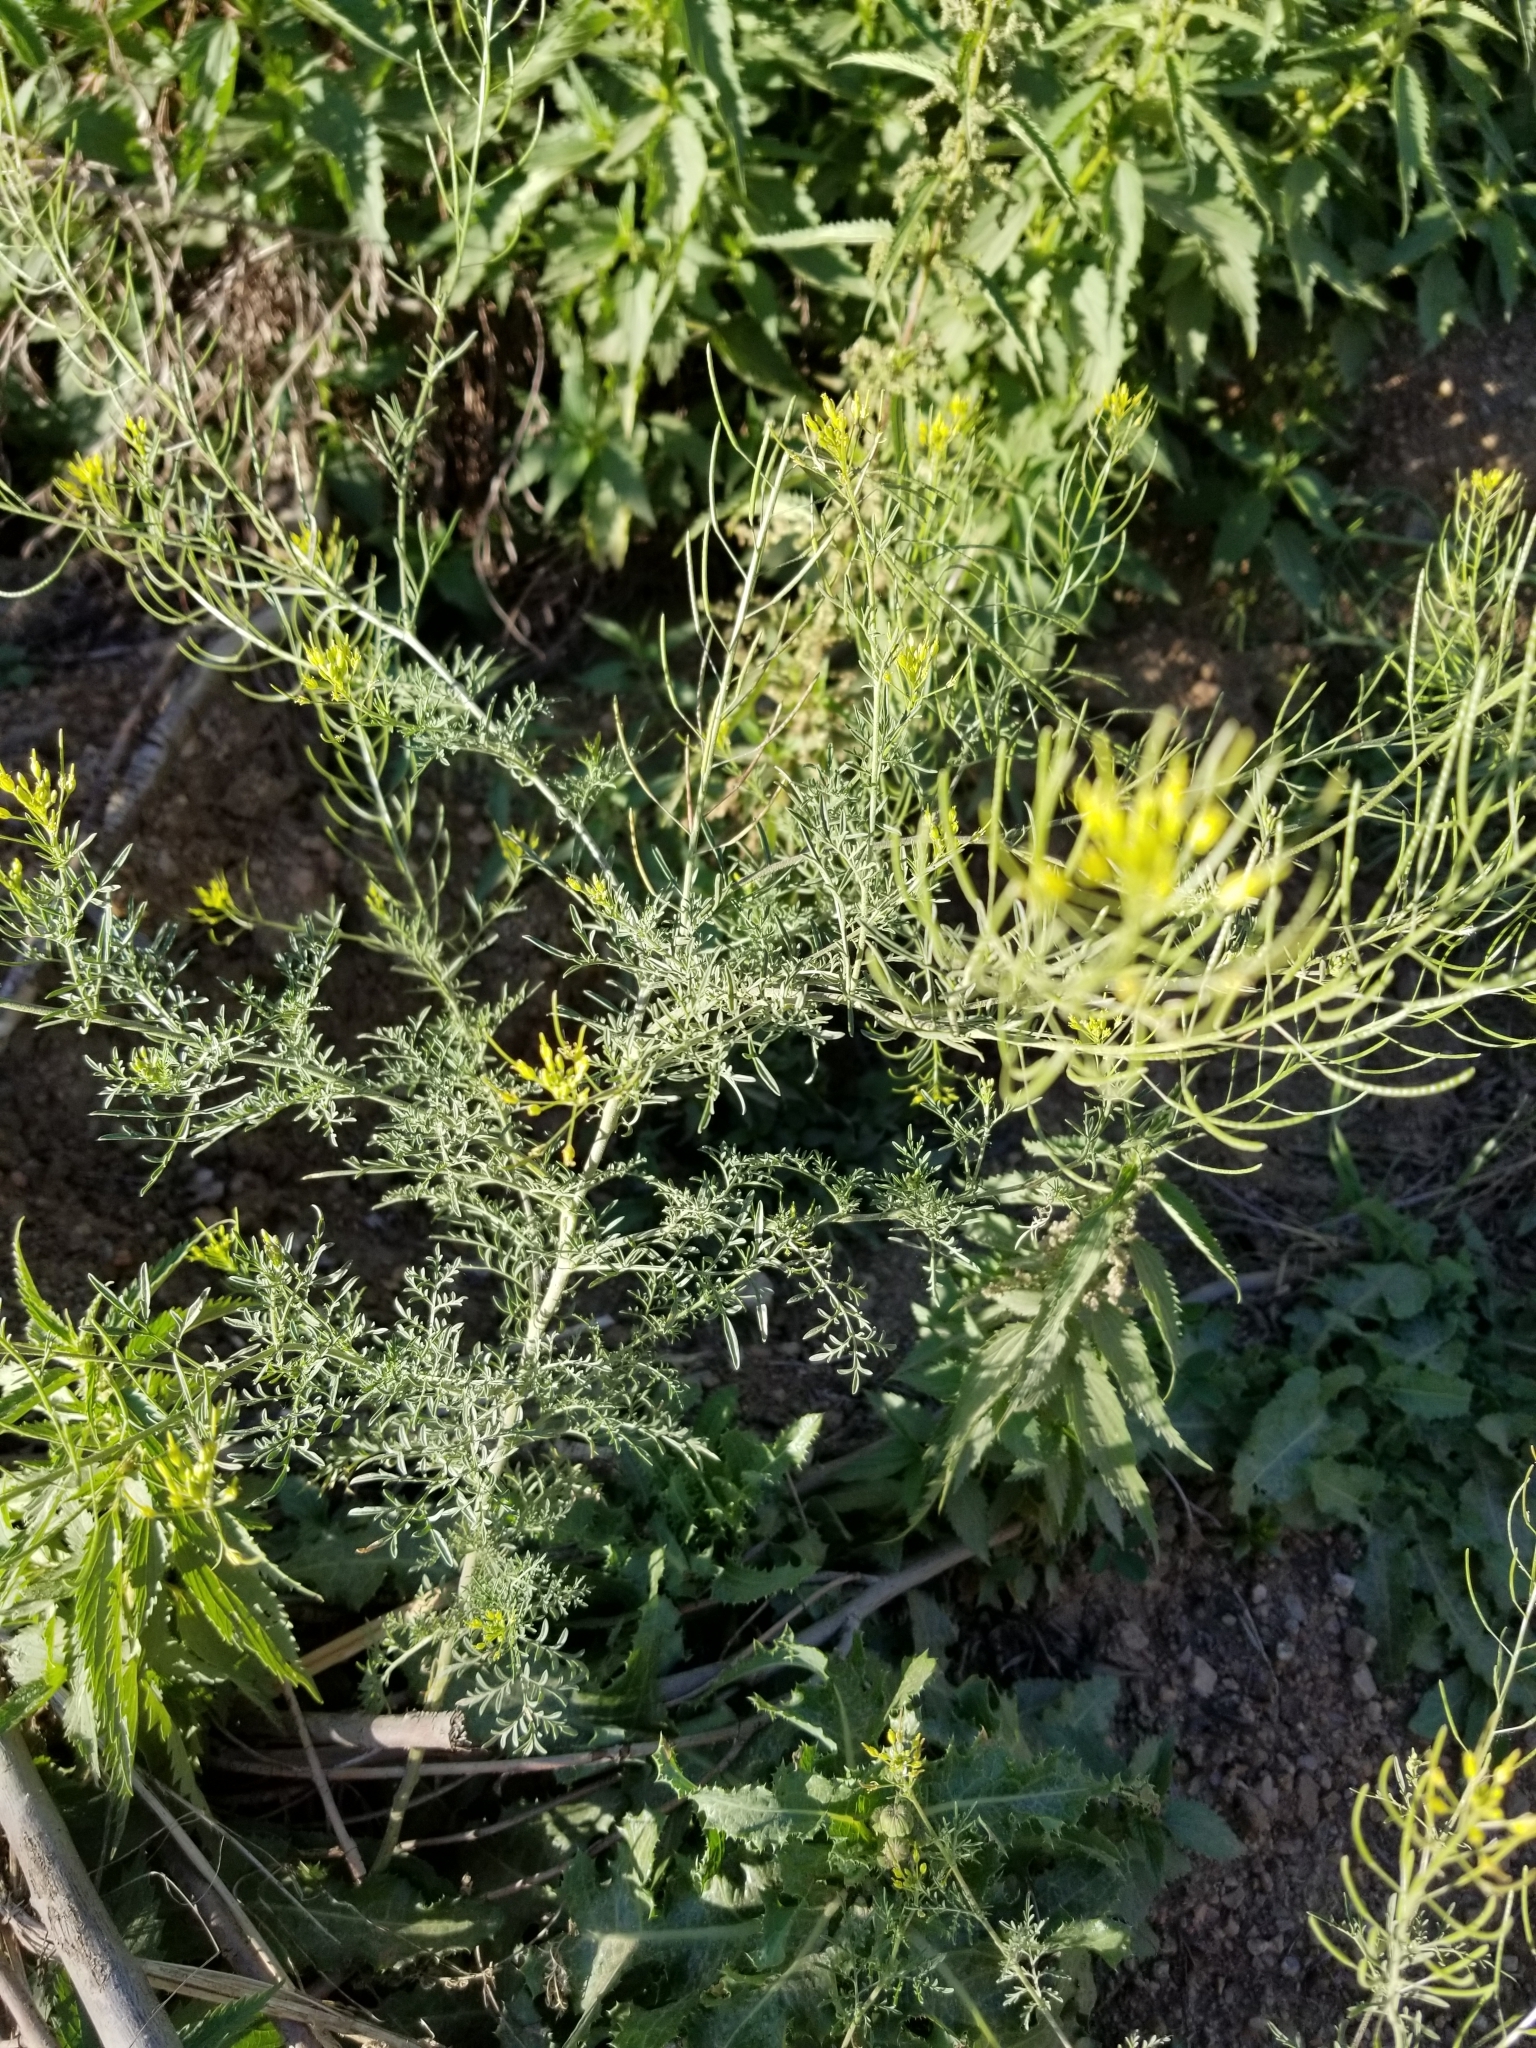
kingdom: Plantae
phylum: Tracheophyta
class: Magnoliopsida
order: Brassicales
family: Brassicaceae
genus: Descurainia
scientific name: Descurainia sophia
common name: Flixweed
